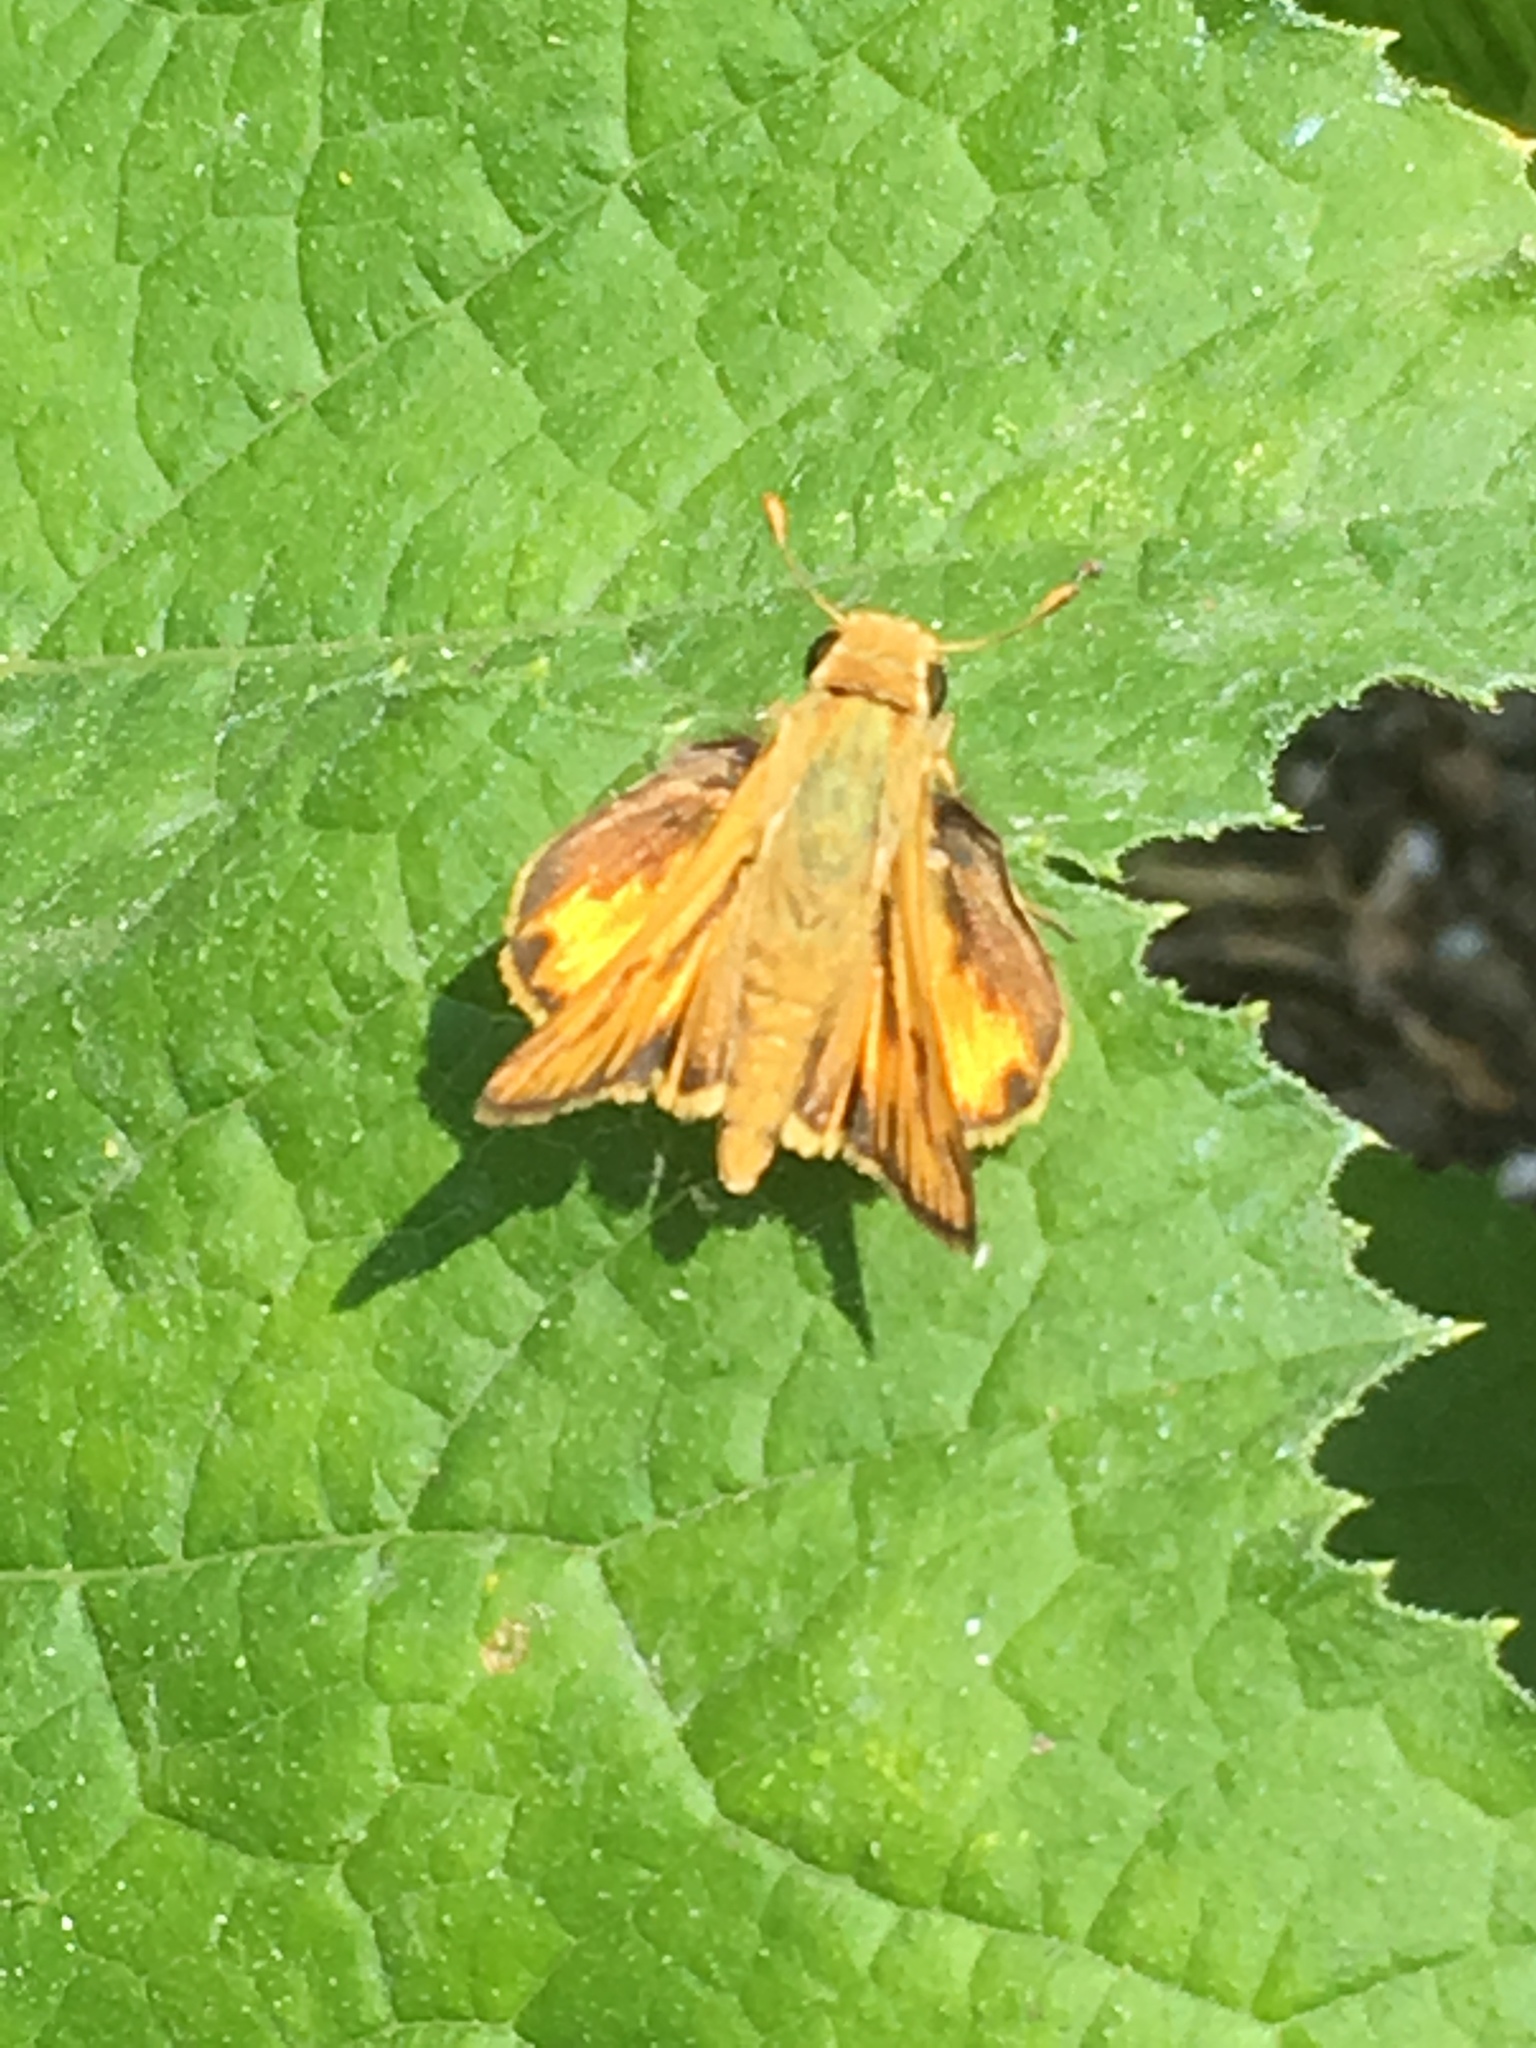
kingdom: Animalia
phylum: Arthropoda
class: Insecta
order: Lepidoptera
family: Hesperiidae
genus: Hylephila
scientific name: Hylephila phyleus
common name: Fiery skipper
